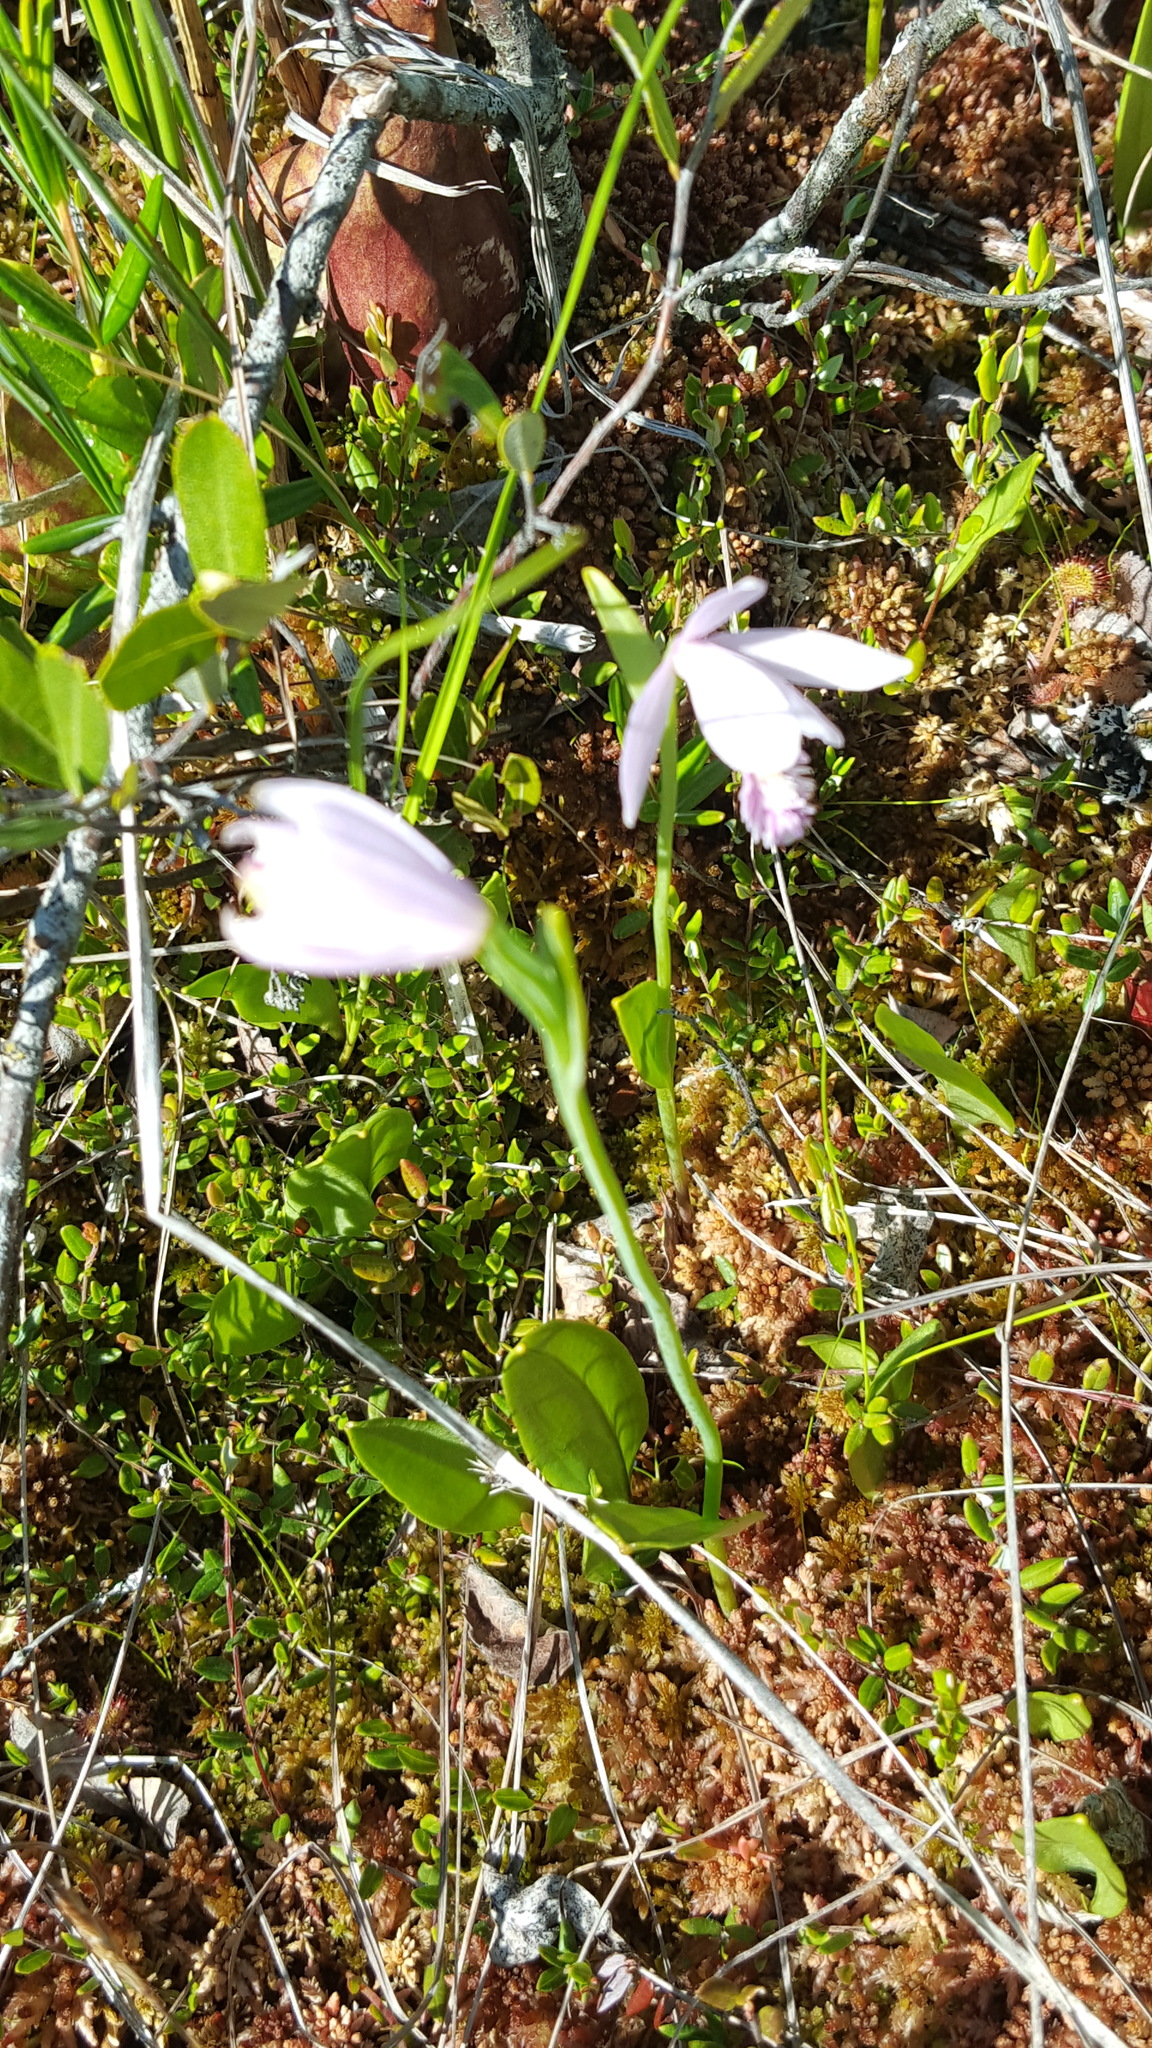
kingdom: Plantae
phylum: Tracheophyta
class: Liliopsida
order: Asparagales
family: Orchidaceae
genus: Pogonia
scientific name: Pogonia ophioglossoides
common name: Rose pogonia
